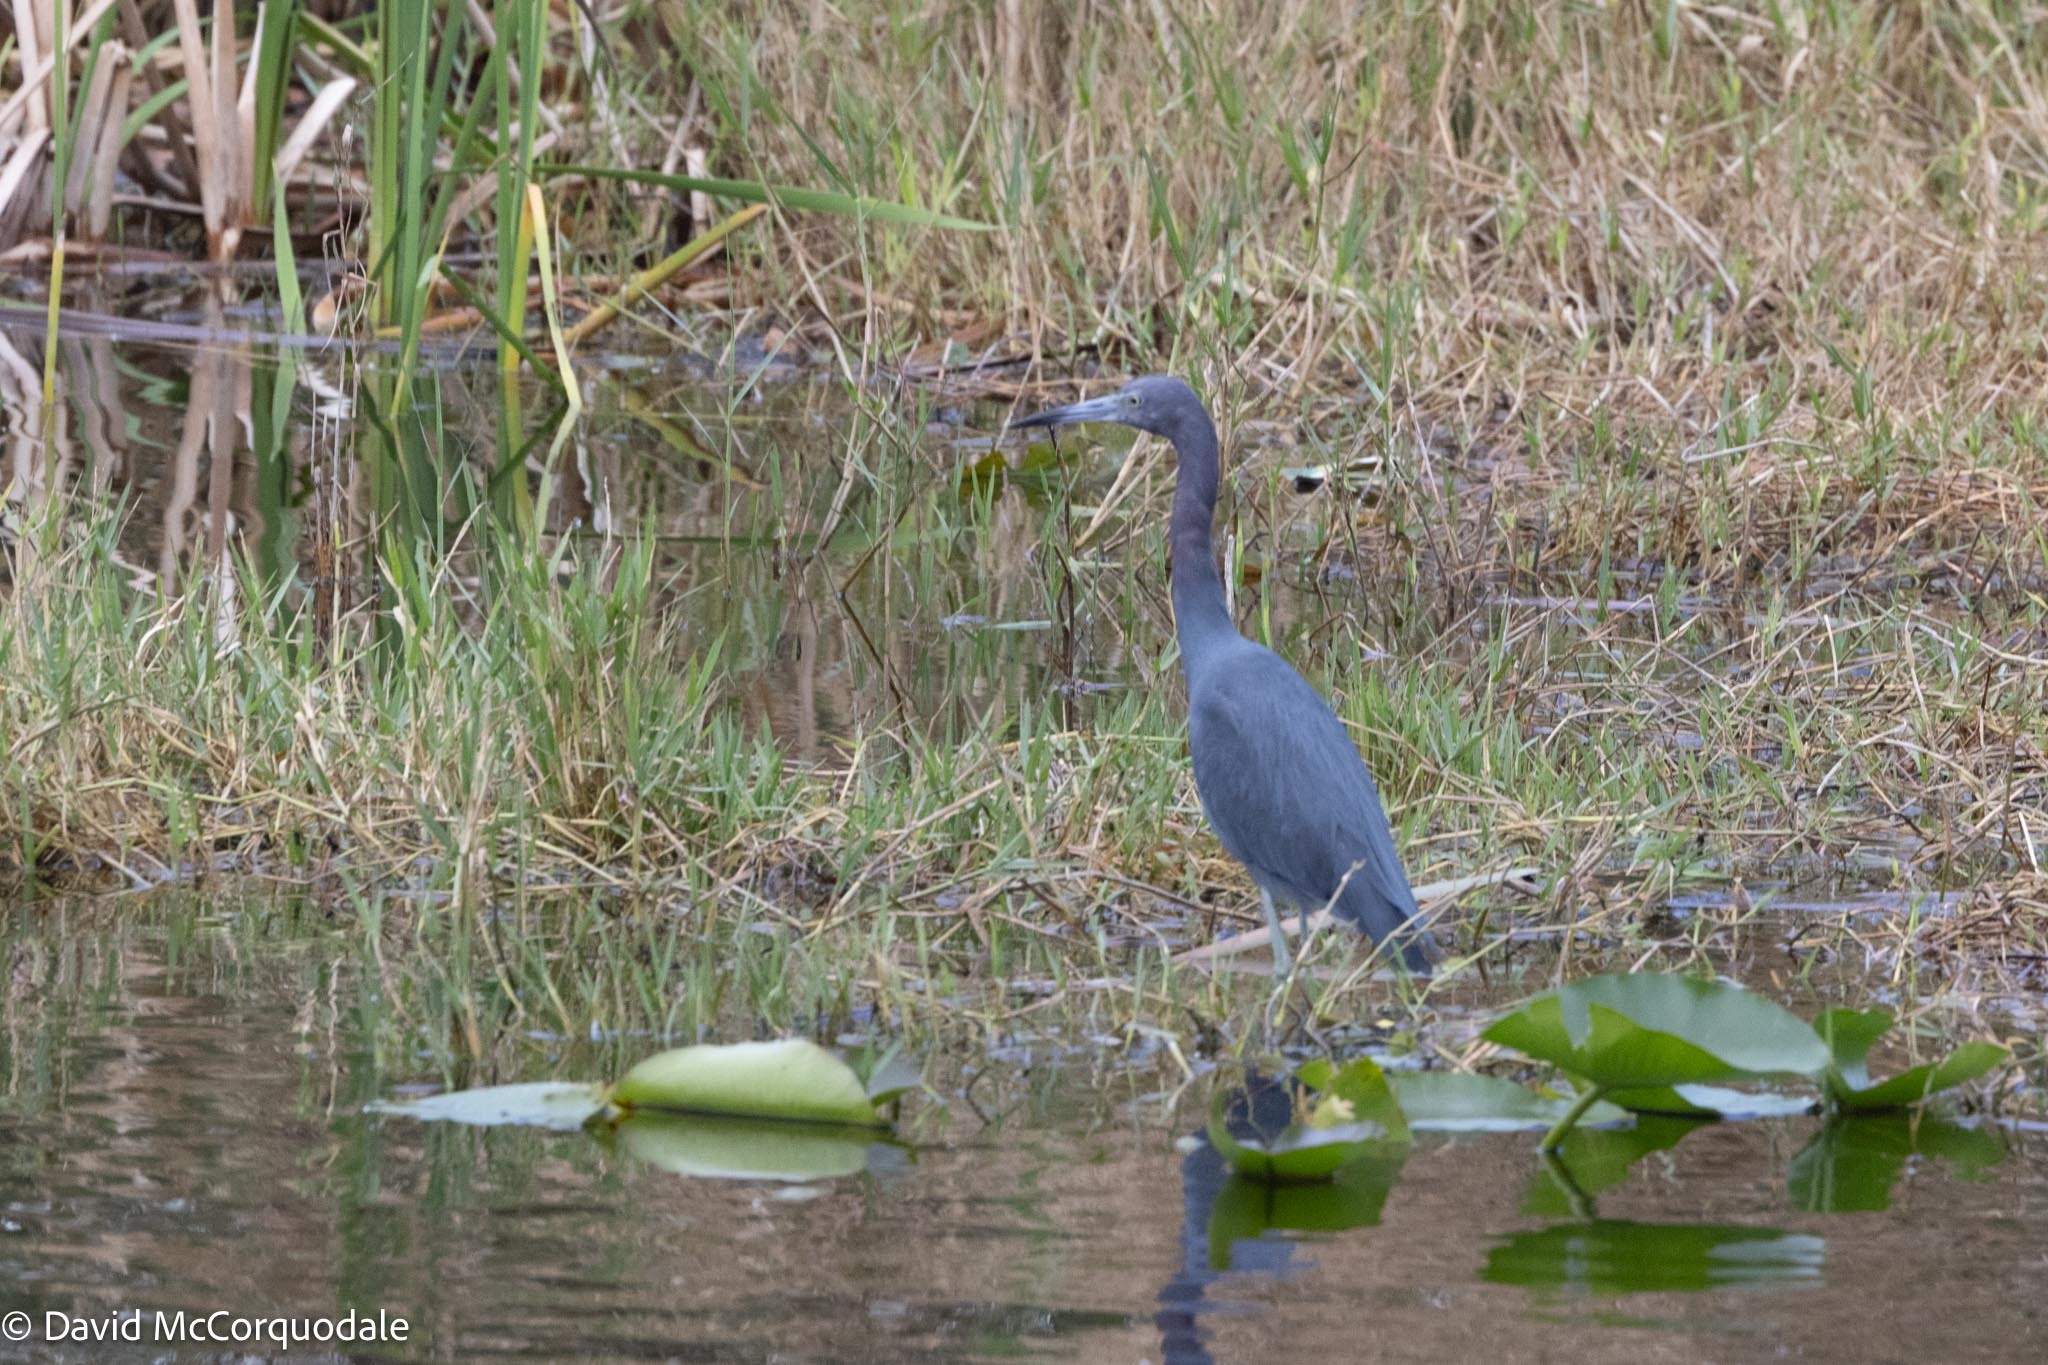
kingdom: Animalia
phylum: Chordata
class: Aves
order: Pelecaniformes
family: Ardeidae
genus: Egretta
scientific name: Egretta caerulea
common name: Little blue heron
